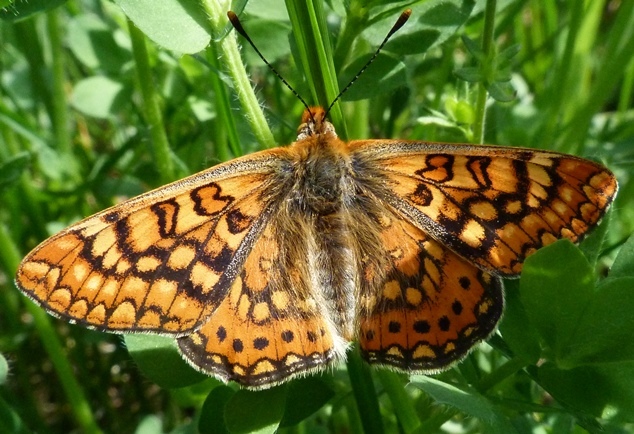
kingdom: Animalia
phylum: Arthropoda
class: Insecta
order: Lepidoptera
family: Nymphalidae
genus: Euphydryas
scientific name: Euphydryas aurinia
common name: Marsh fritillary
